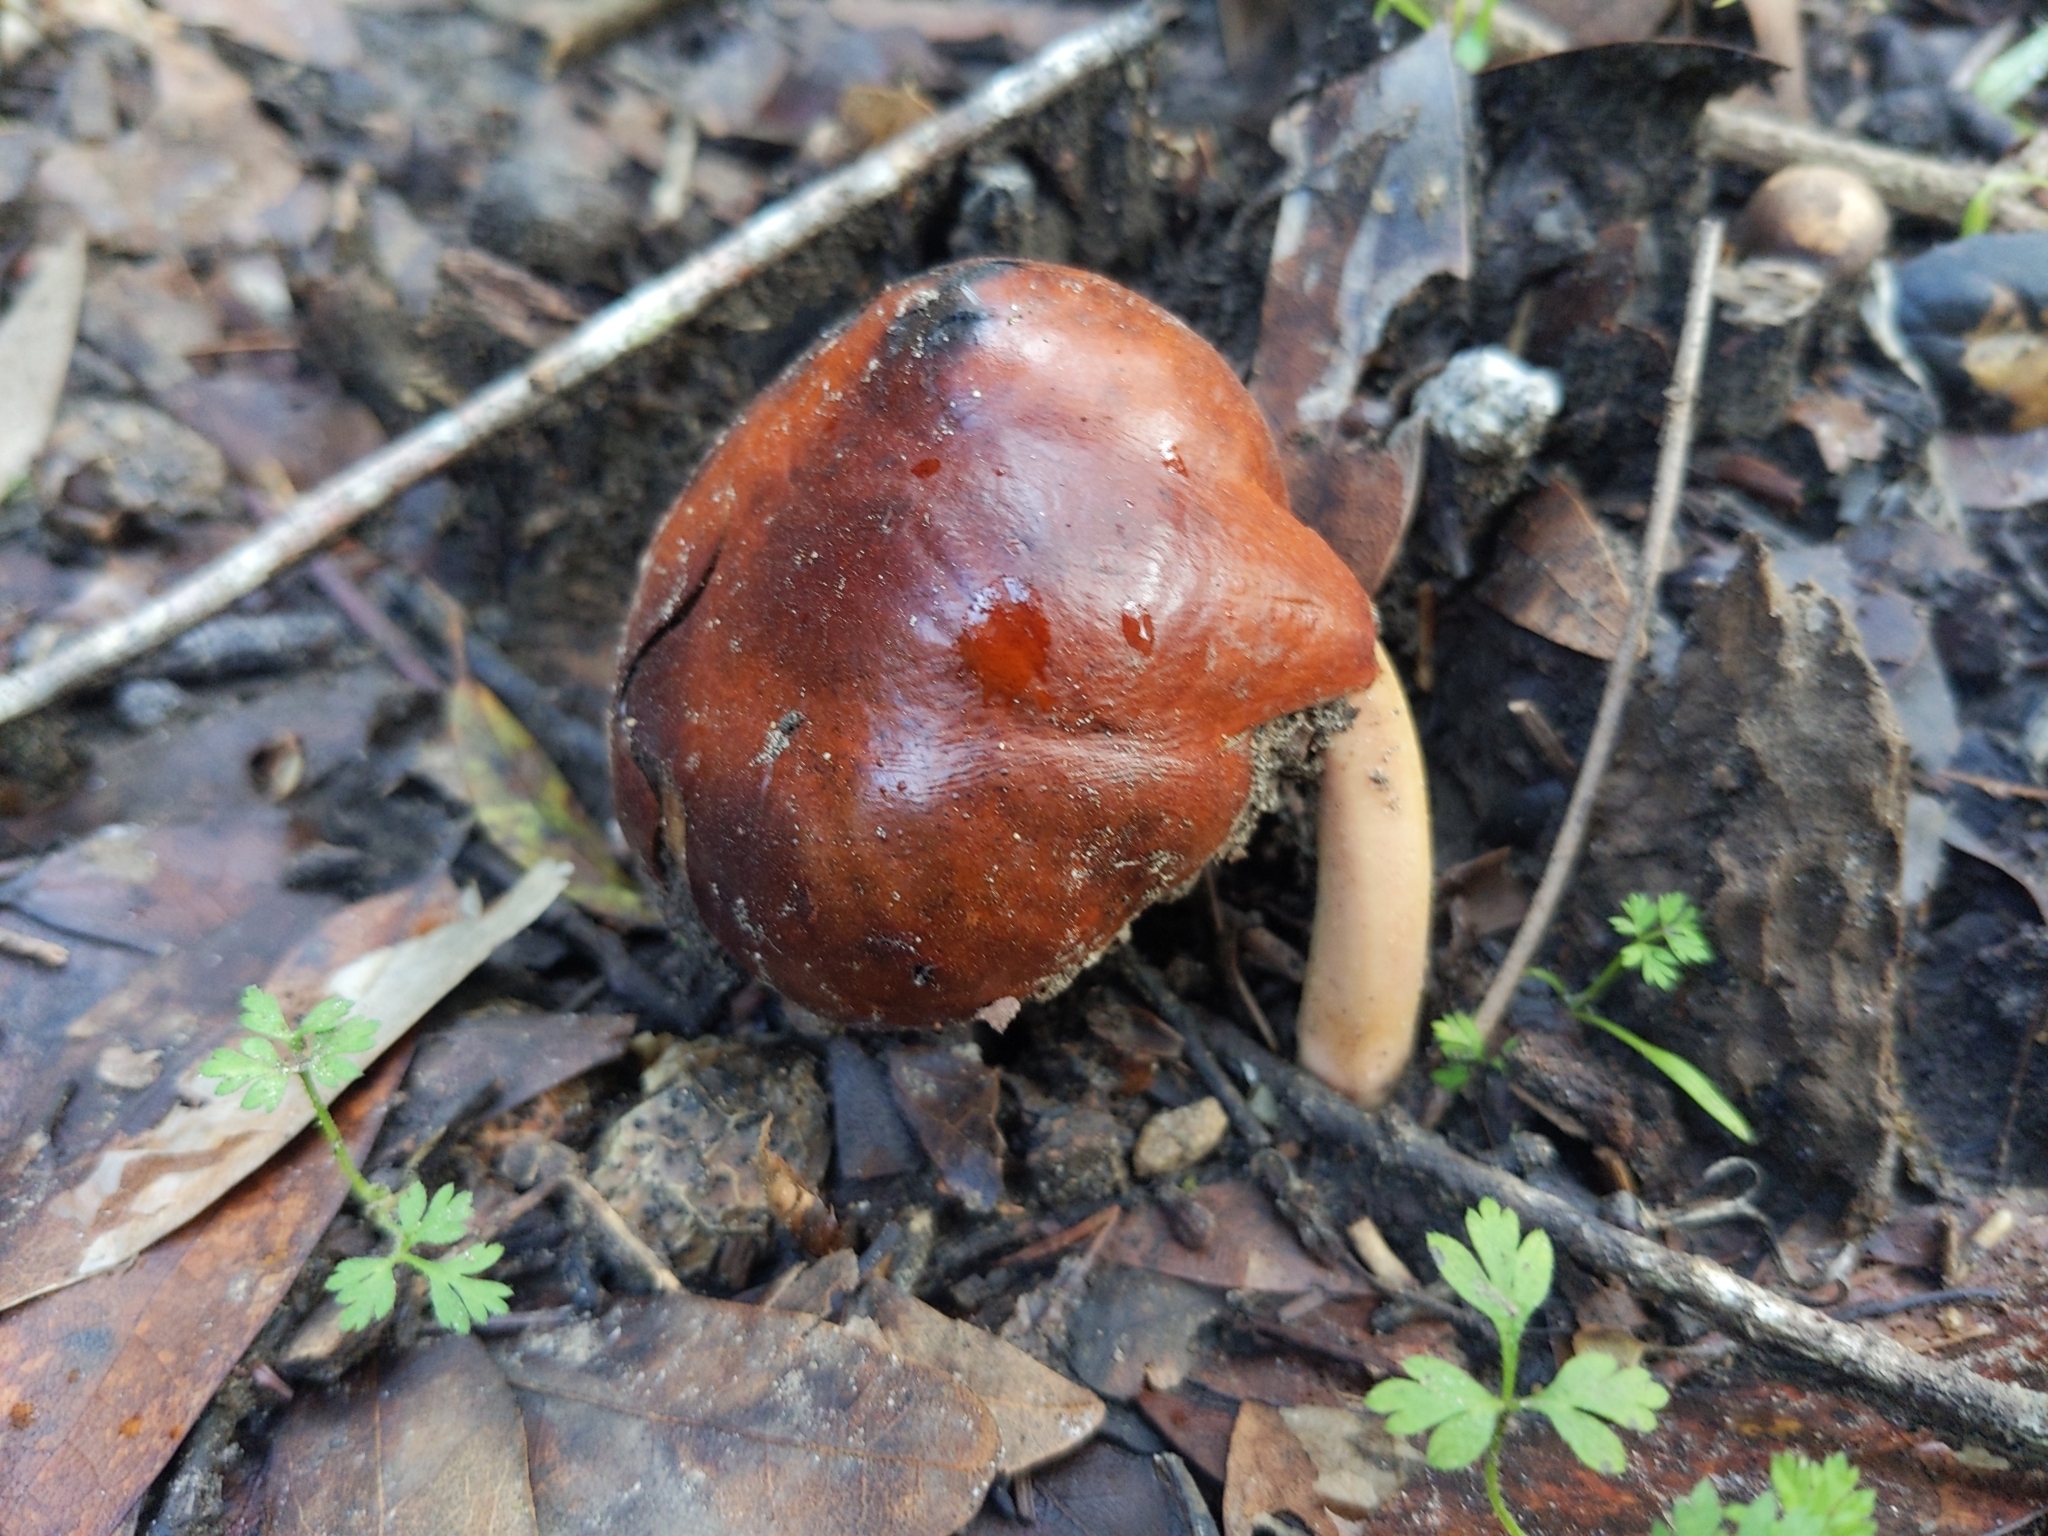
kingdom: Plantae
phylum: Tracheophyta
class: Magnoliopsida
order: Sapindales
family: Sapindaceae
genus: Aesculus
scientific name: Aesculus californica
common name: California buckeye
